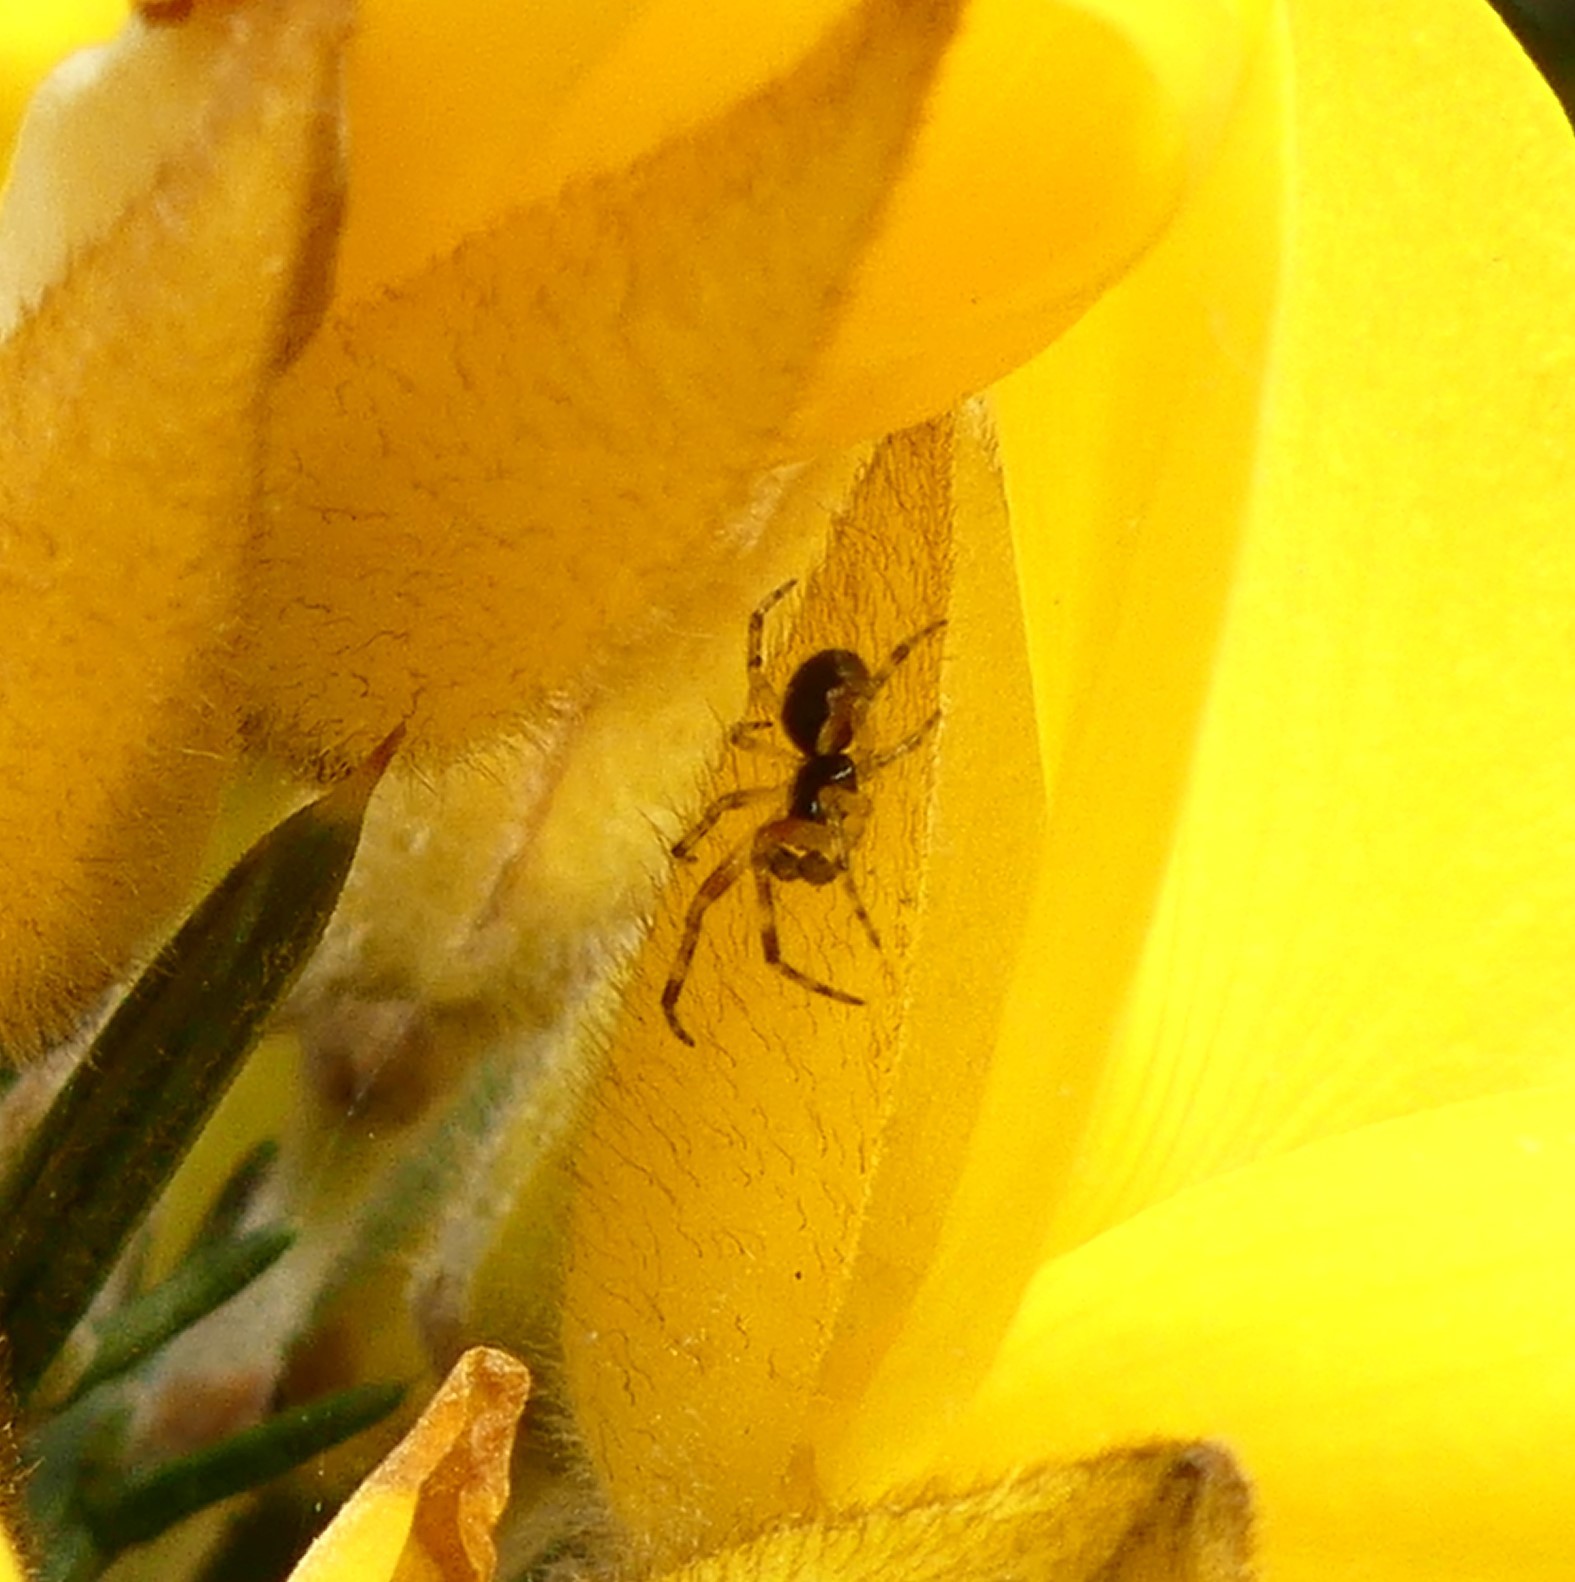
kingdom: Animalia
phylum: Arthropoda
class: Arachnida
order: Araneae
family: Theridiidae
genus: Anelosimus
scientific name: Anelosimus vittatus
